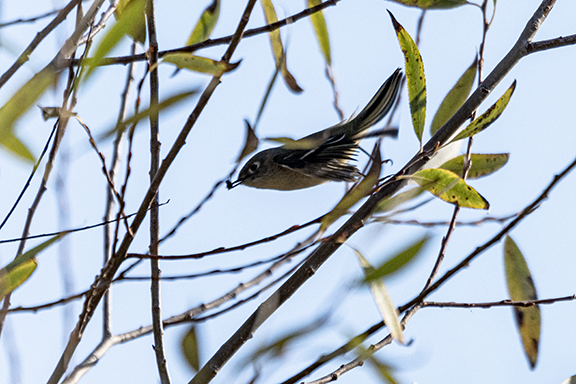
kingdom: Animalia
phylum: Chordata
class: Aves
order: Passeriformes
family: Regulidae
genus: Regulus
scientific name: Regulus calendula
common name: Ruby-crowned kinglet
